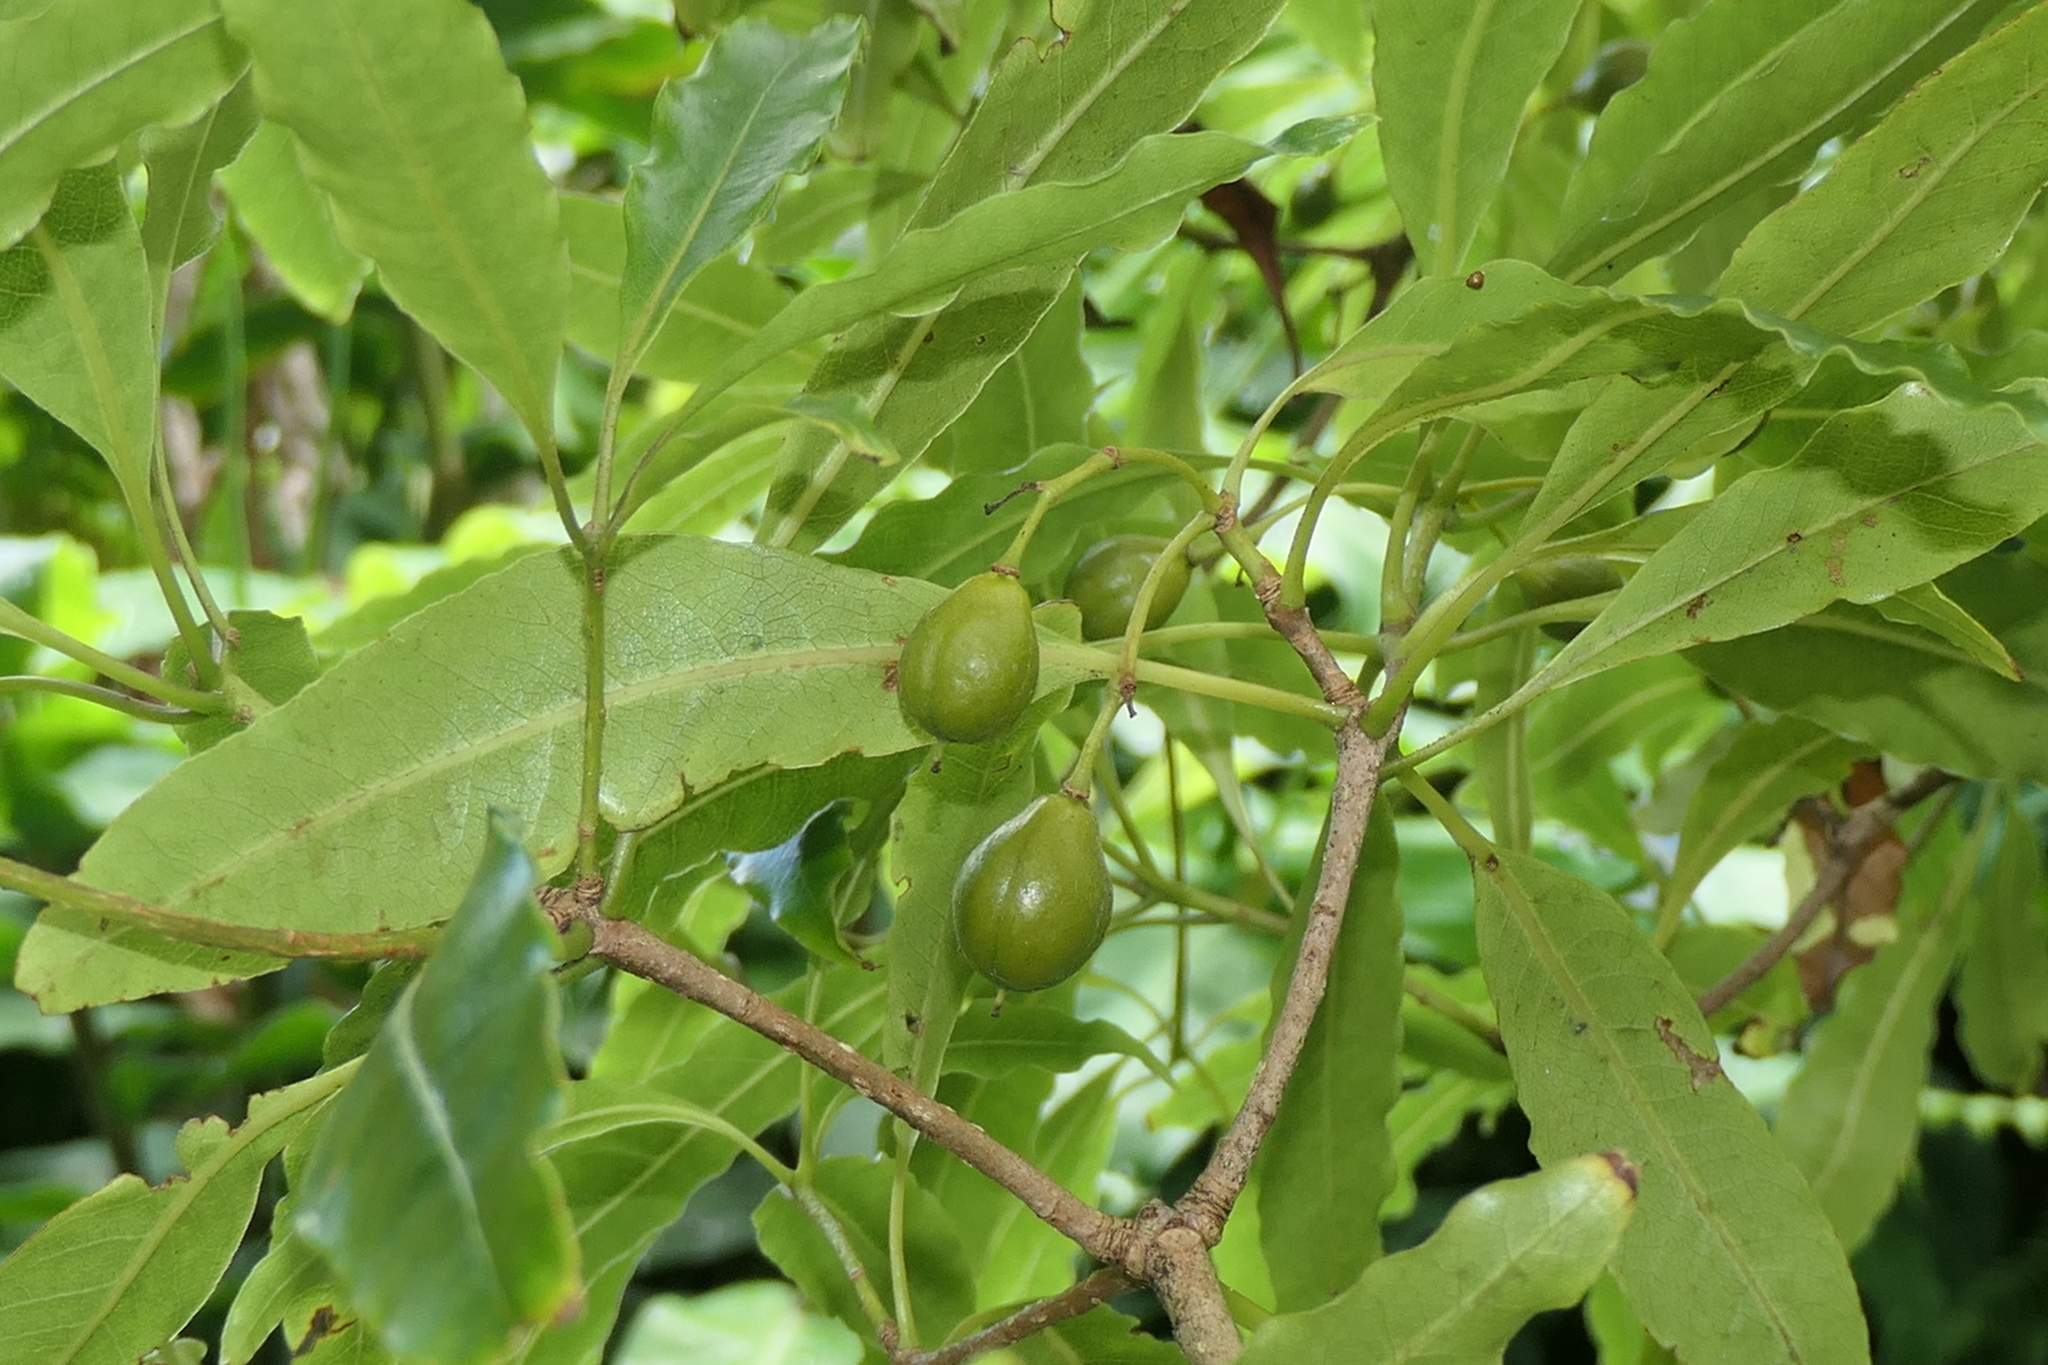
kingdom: Plantae
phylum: Tracheophyta
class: Magnoliopsida
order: Apiales
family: Pittosporaceae
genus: Pittosporum
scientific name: Pittosporum undulatum
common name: Australian cheesewood
